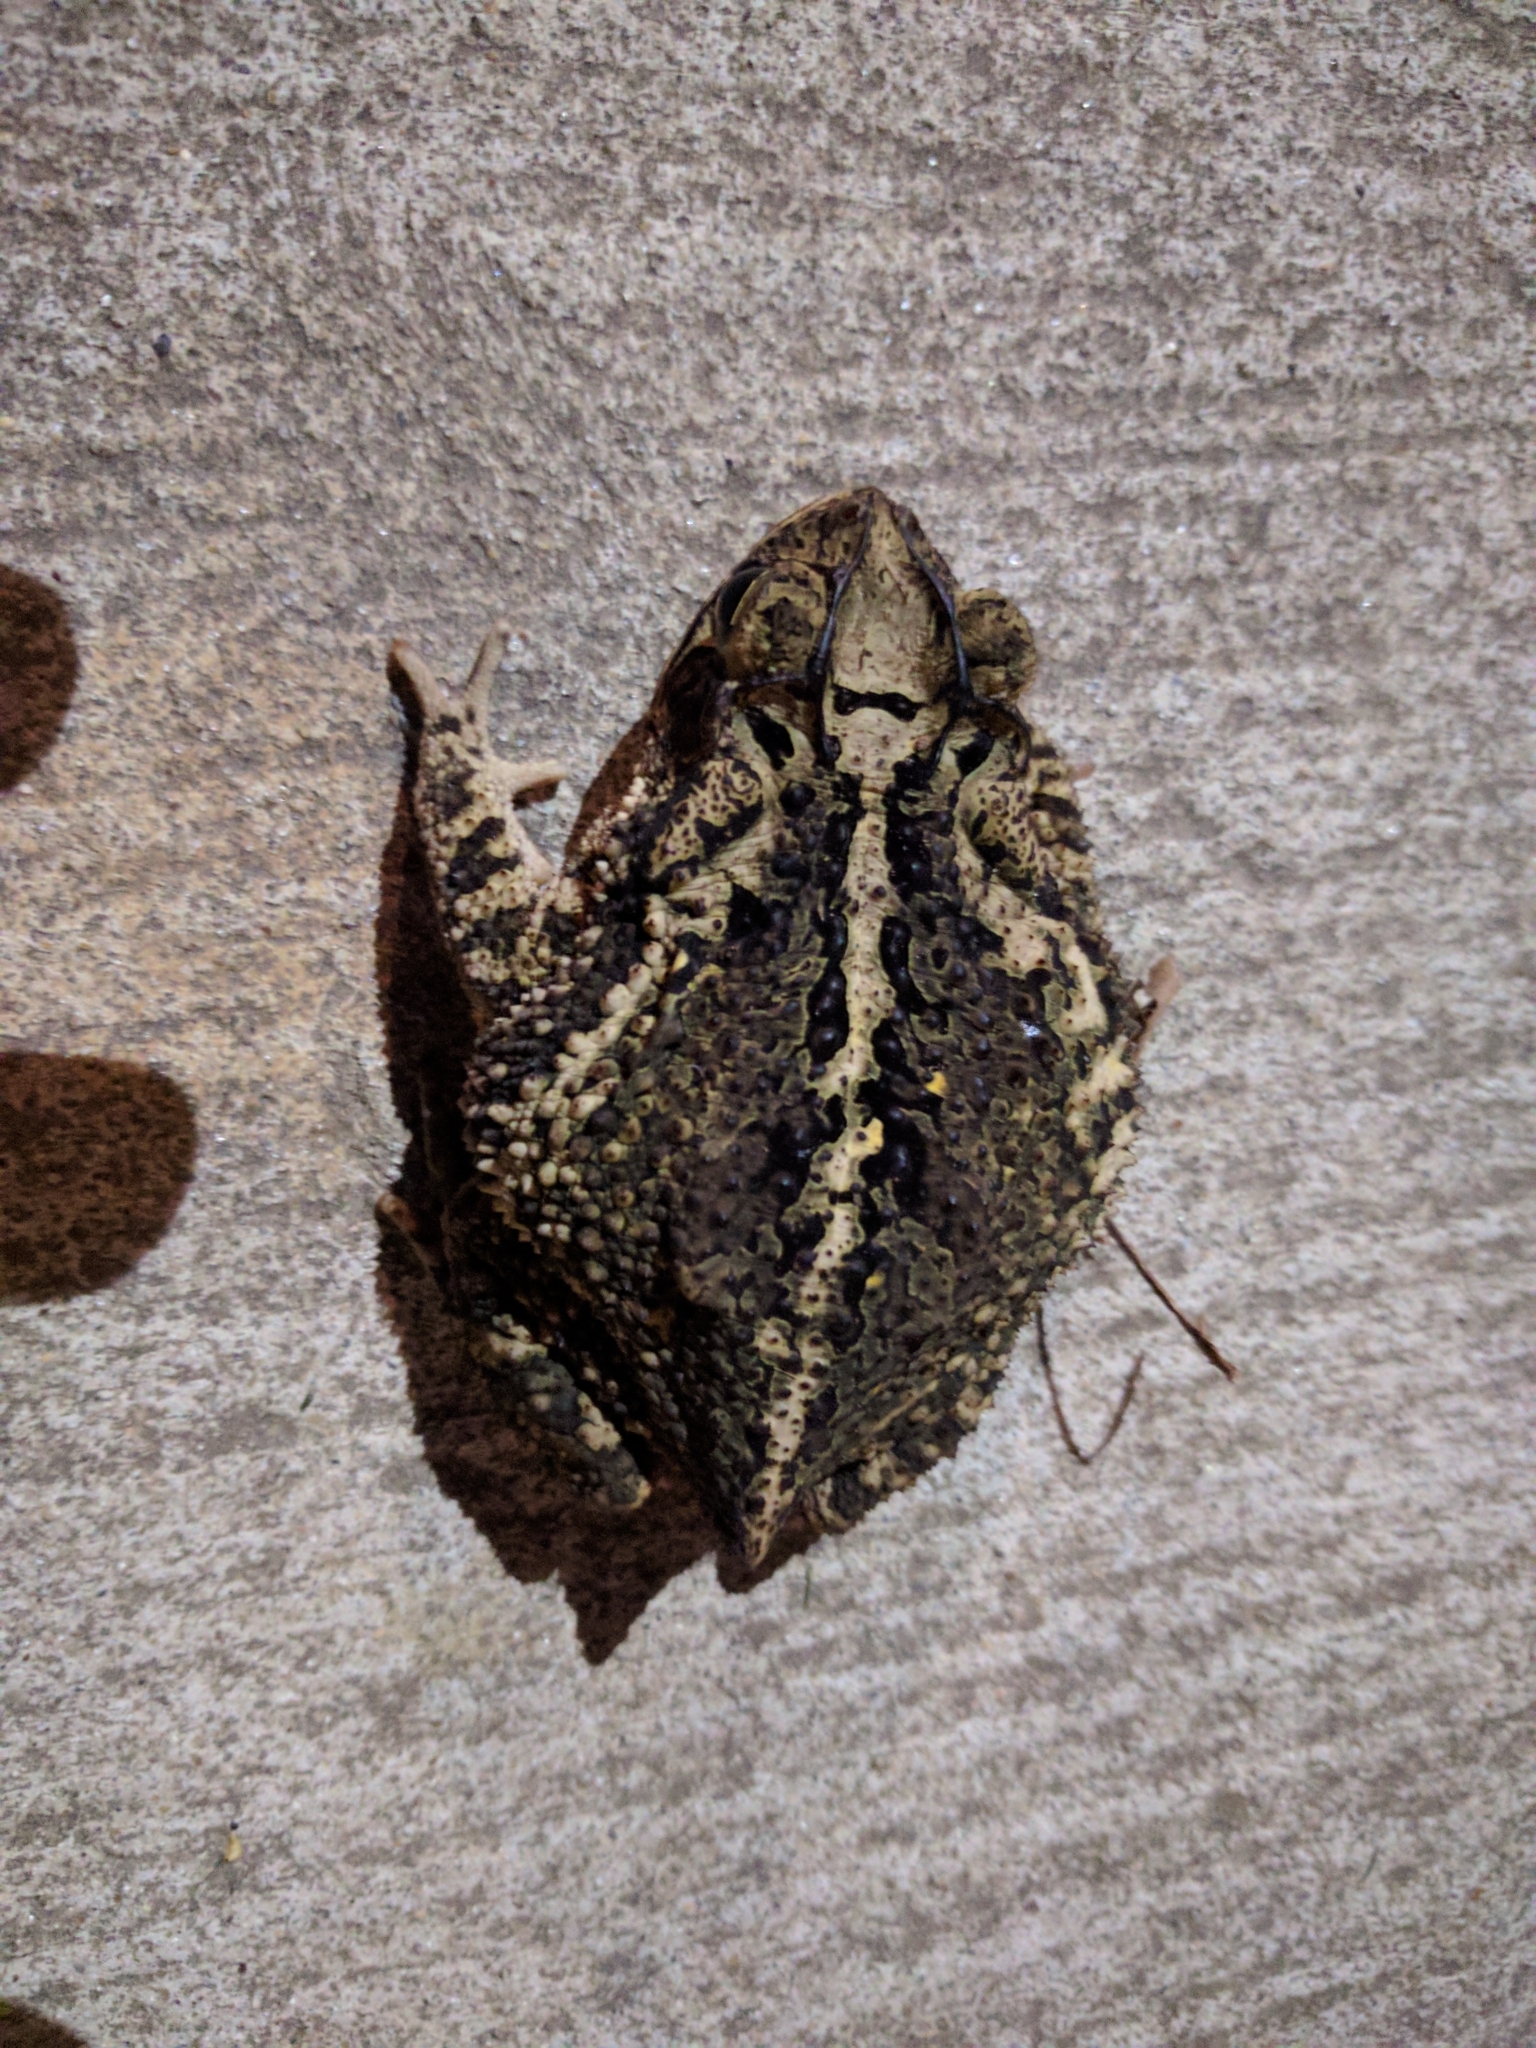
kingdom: Animalia
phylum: Chordata
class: Amphibia
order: Anura
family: Bufonidae
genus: Incilius
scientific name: Incilius nebulifer
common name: Gulf coast toad
